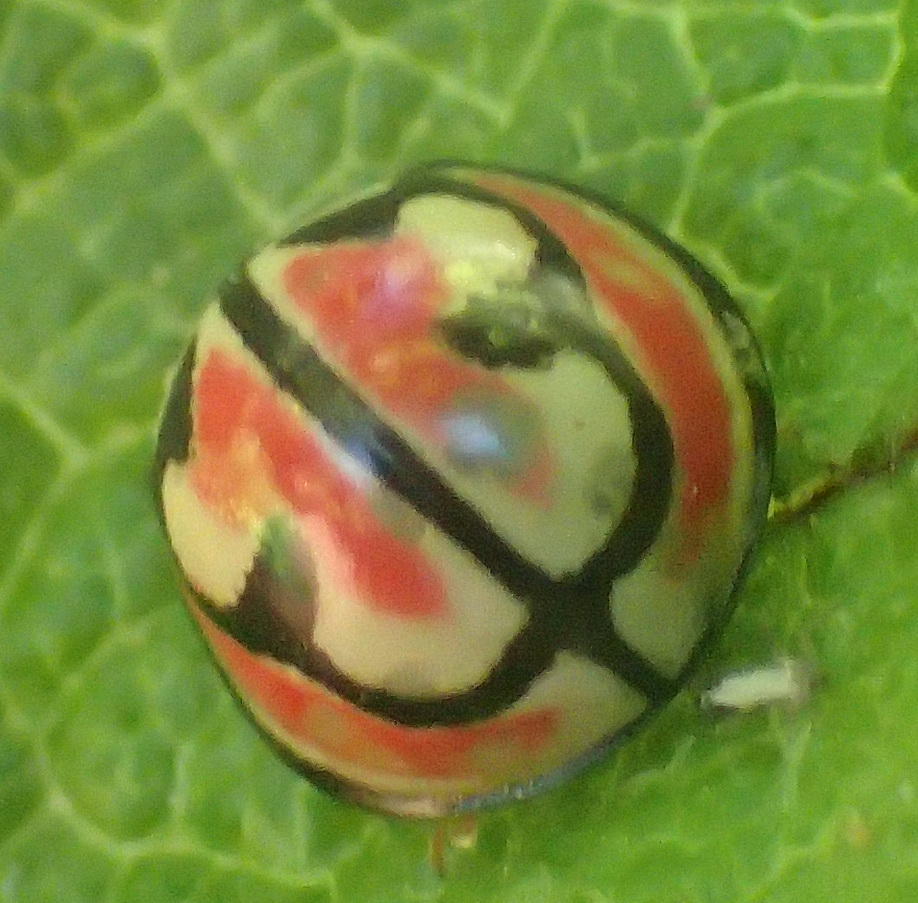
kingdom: Animalia
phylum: Arthropoda
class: Insecta
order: Coleoptera
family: Coccinellidae
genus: Cheilomenes
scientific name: Cheilomenes
